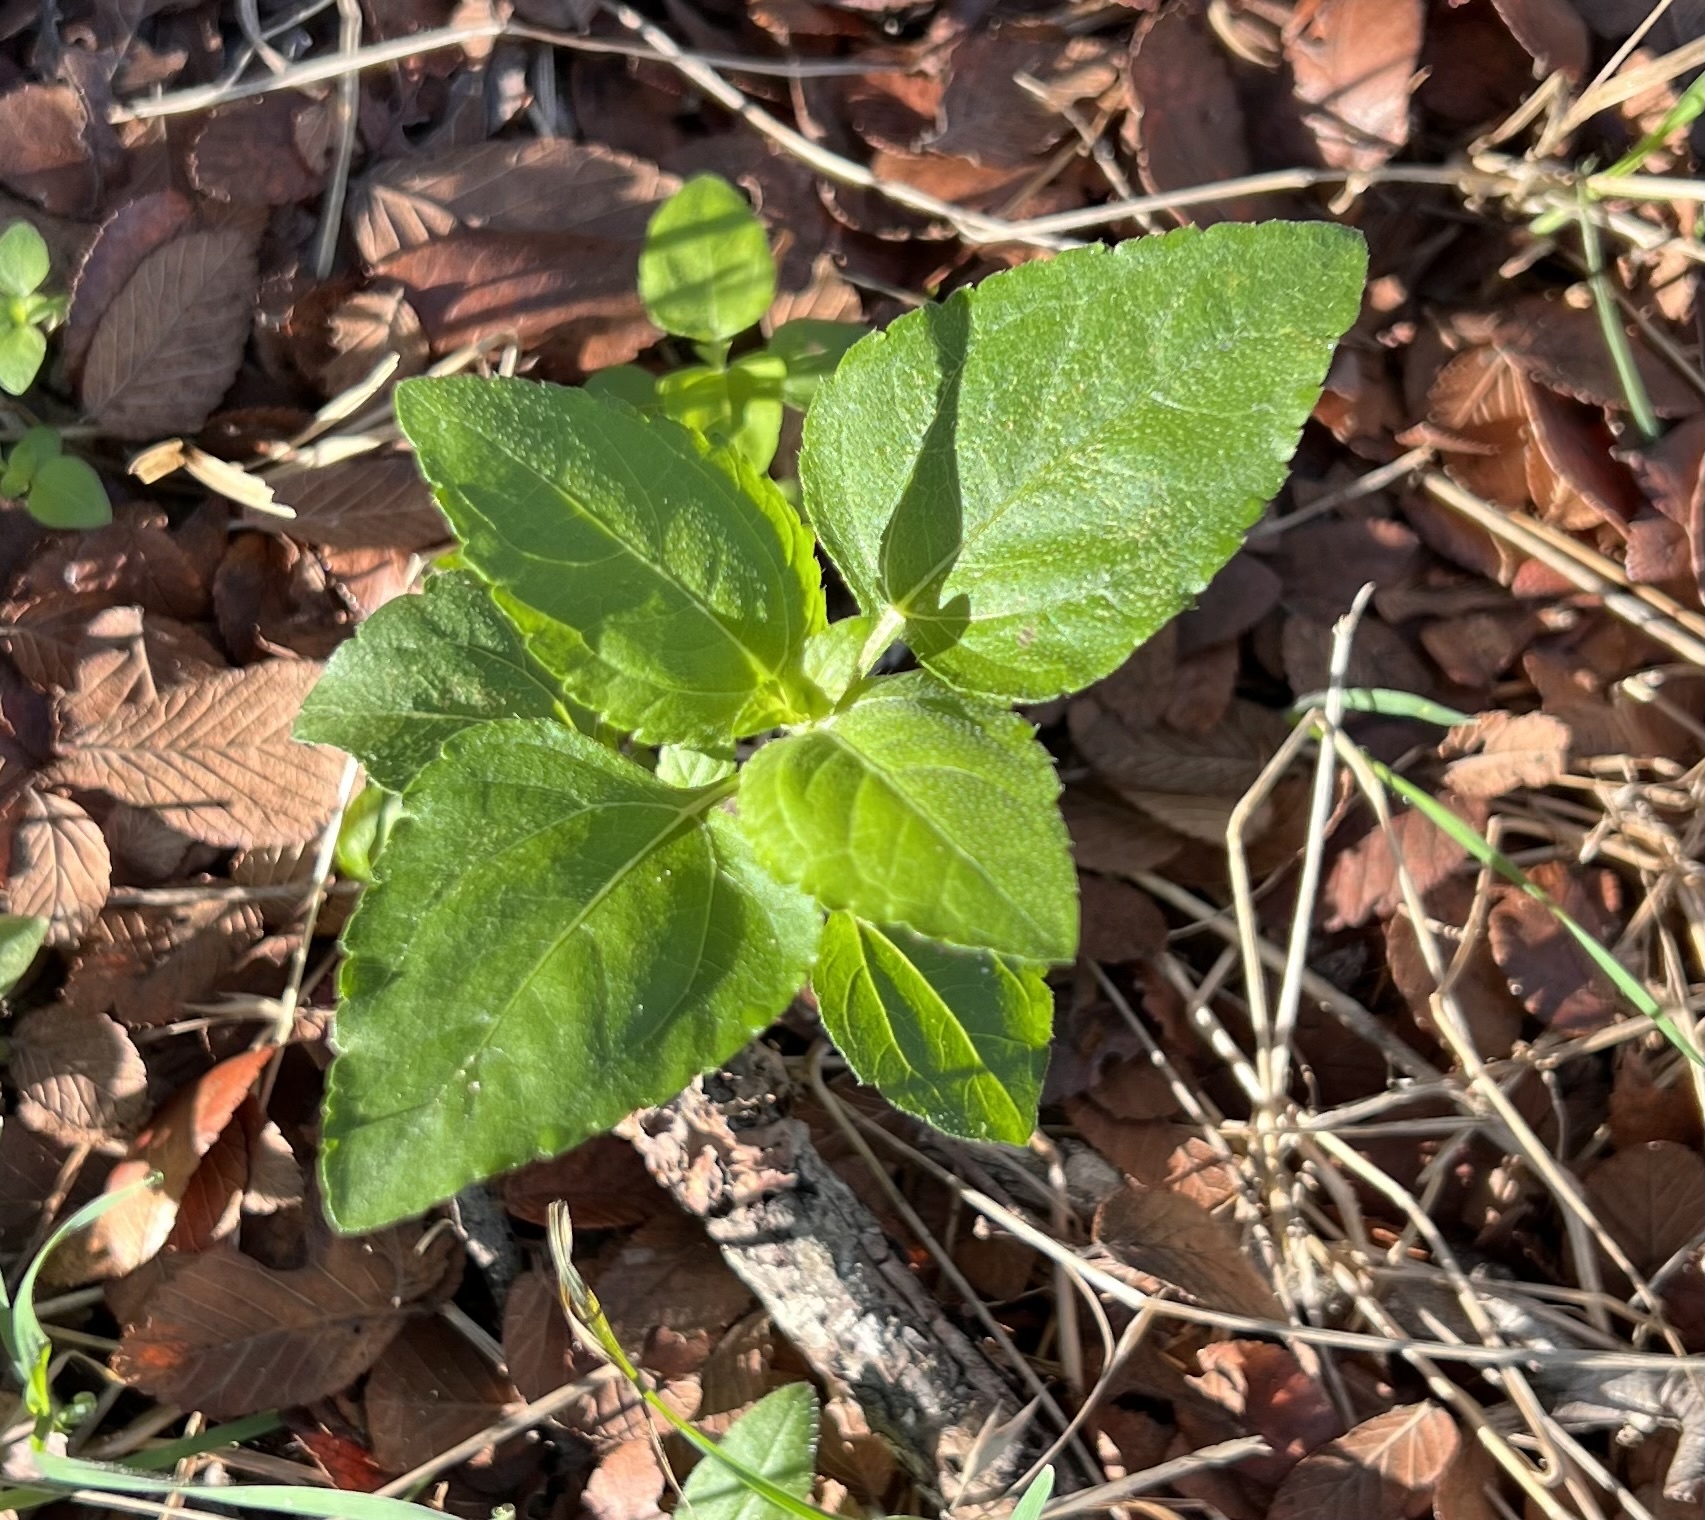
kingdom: Plantae
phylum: Tracheophyta
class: Magnoliopsida
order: Asterales
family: Asteraceae
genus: Calyptocarpus
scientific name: Calyptocarpus vialis
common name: Straggler daisy
